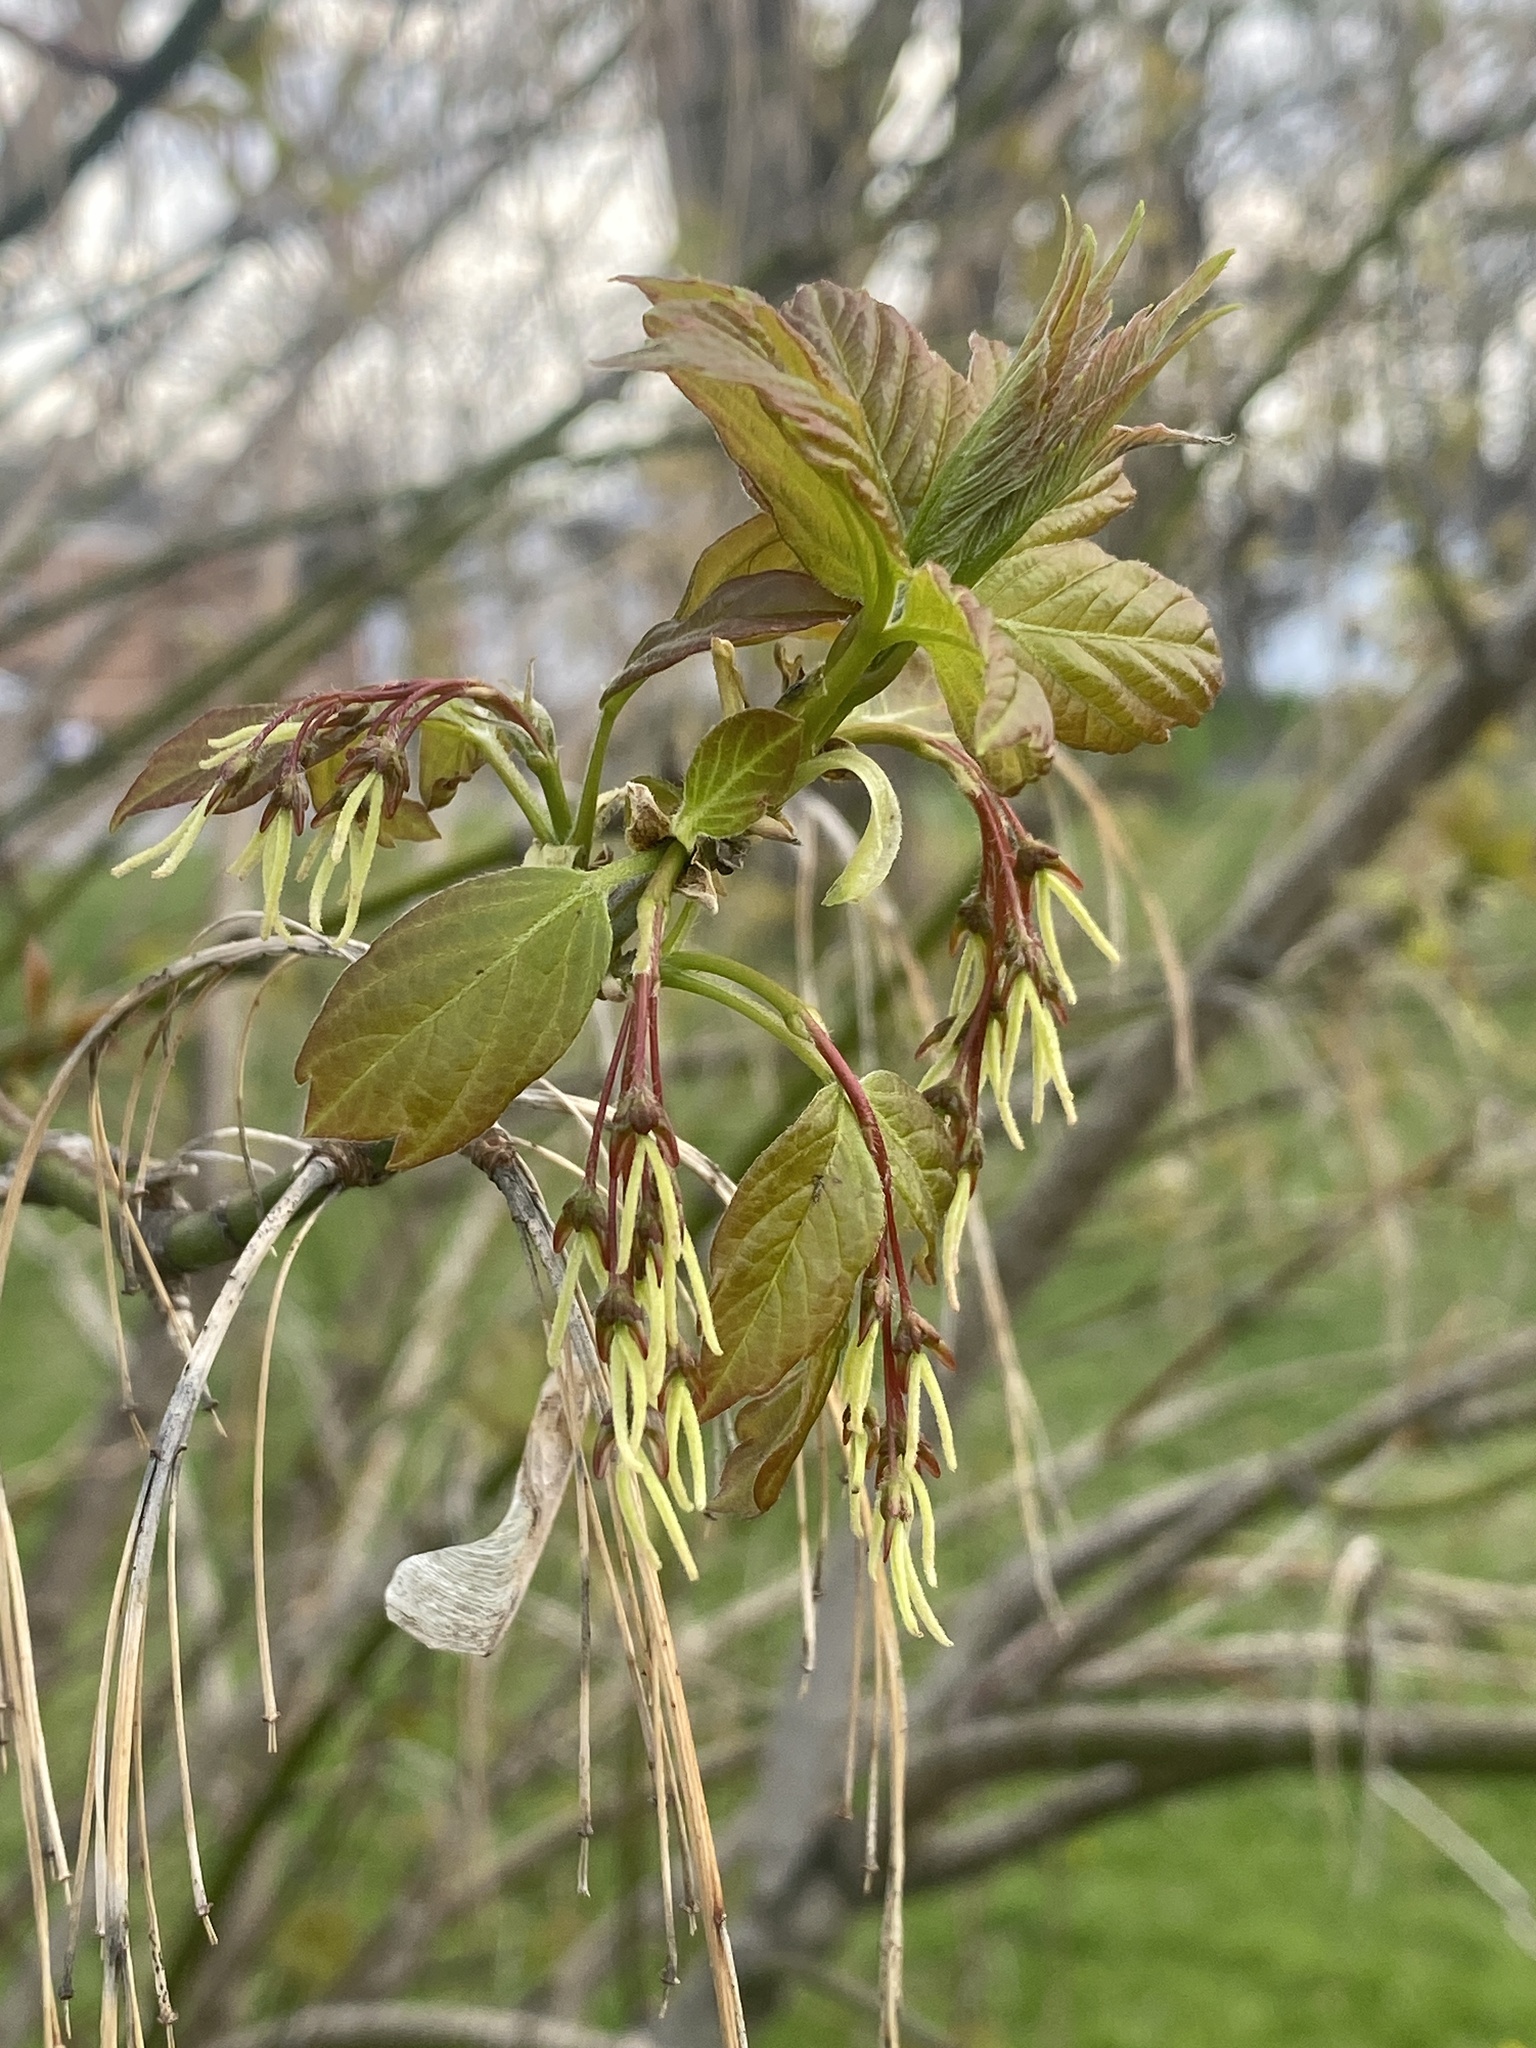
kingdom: Plantae
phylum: Tracheophyta
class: Magnoliopsida
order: Sapindales
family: Sapindaceae
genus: Acer
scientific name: Acer negundo
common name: Ashleaf maple
